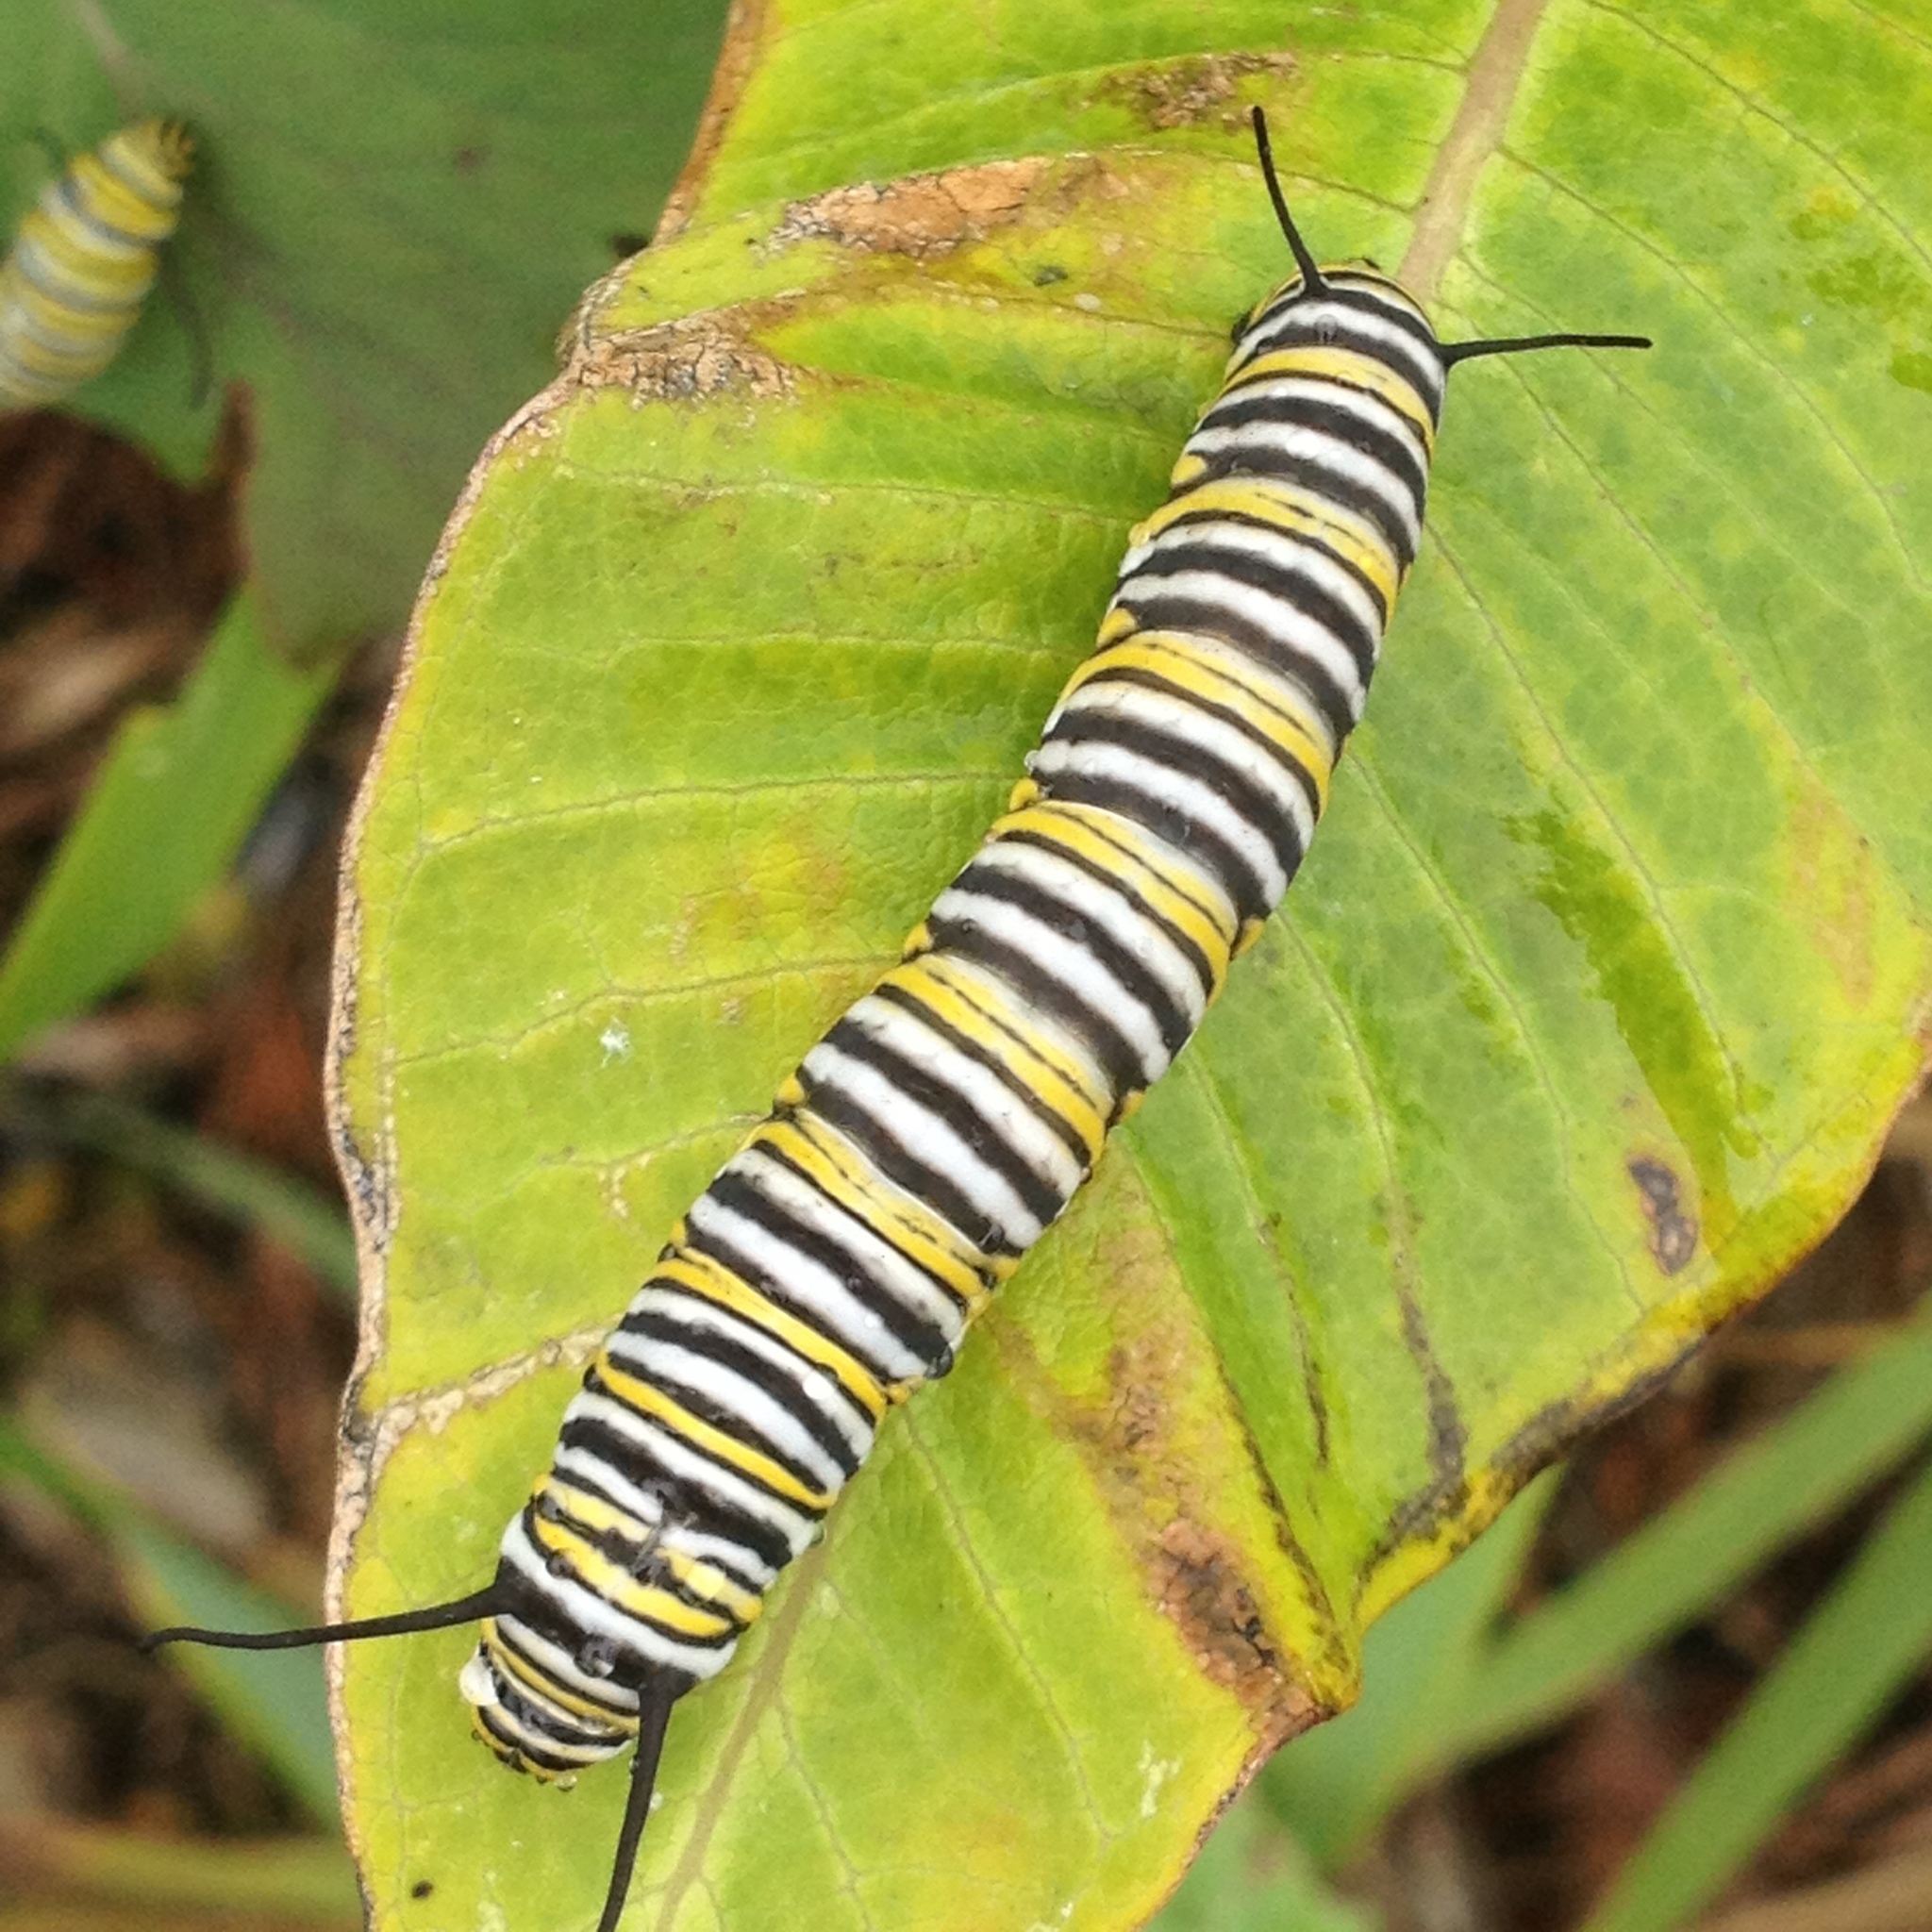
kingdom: Animalia
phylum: Arthropoda
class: Insecta
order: Lepidoptera
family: Nymphalidae
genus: Danaus
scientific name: Danaus plexippus
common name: Monarch
